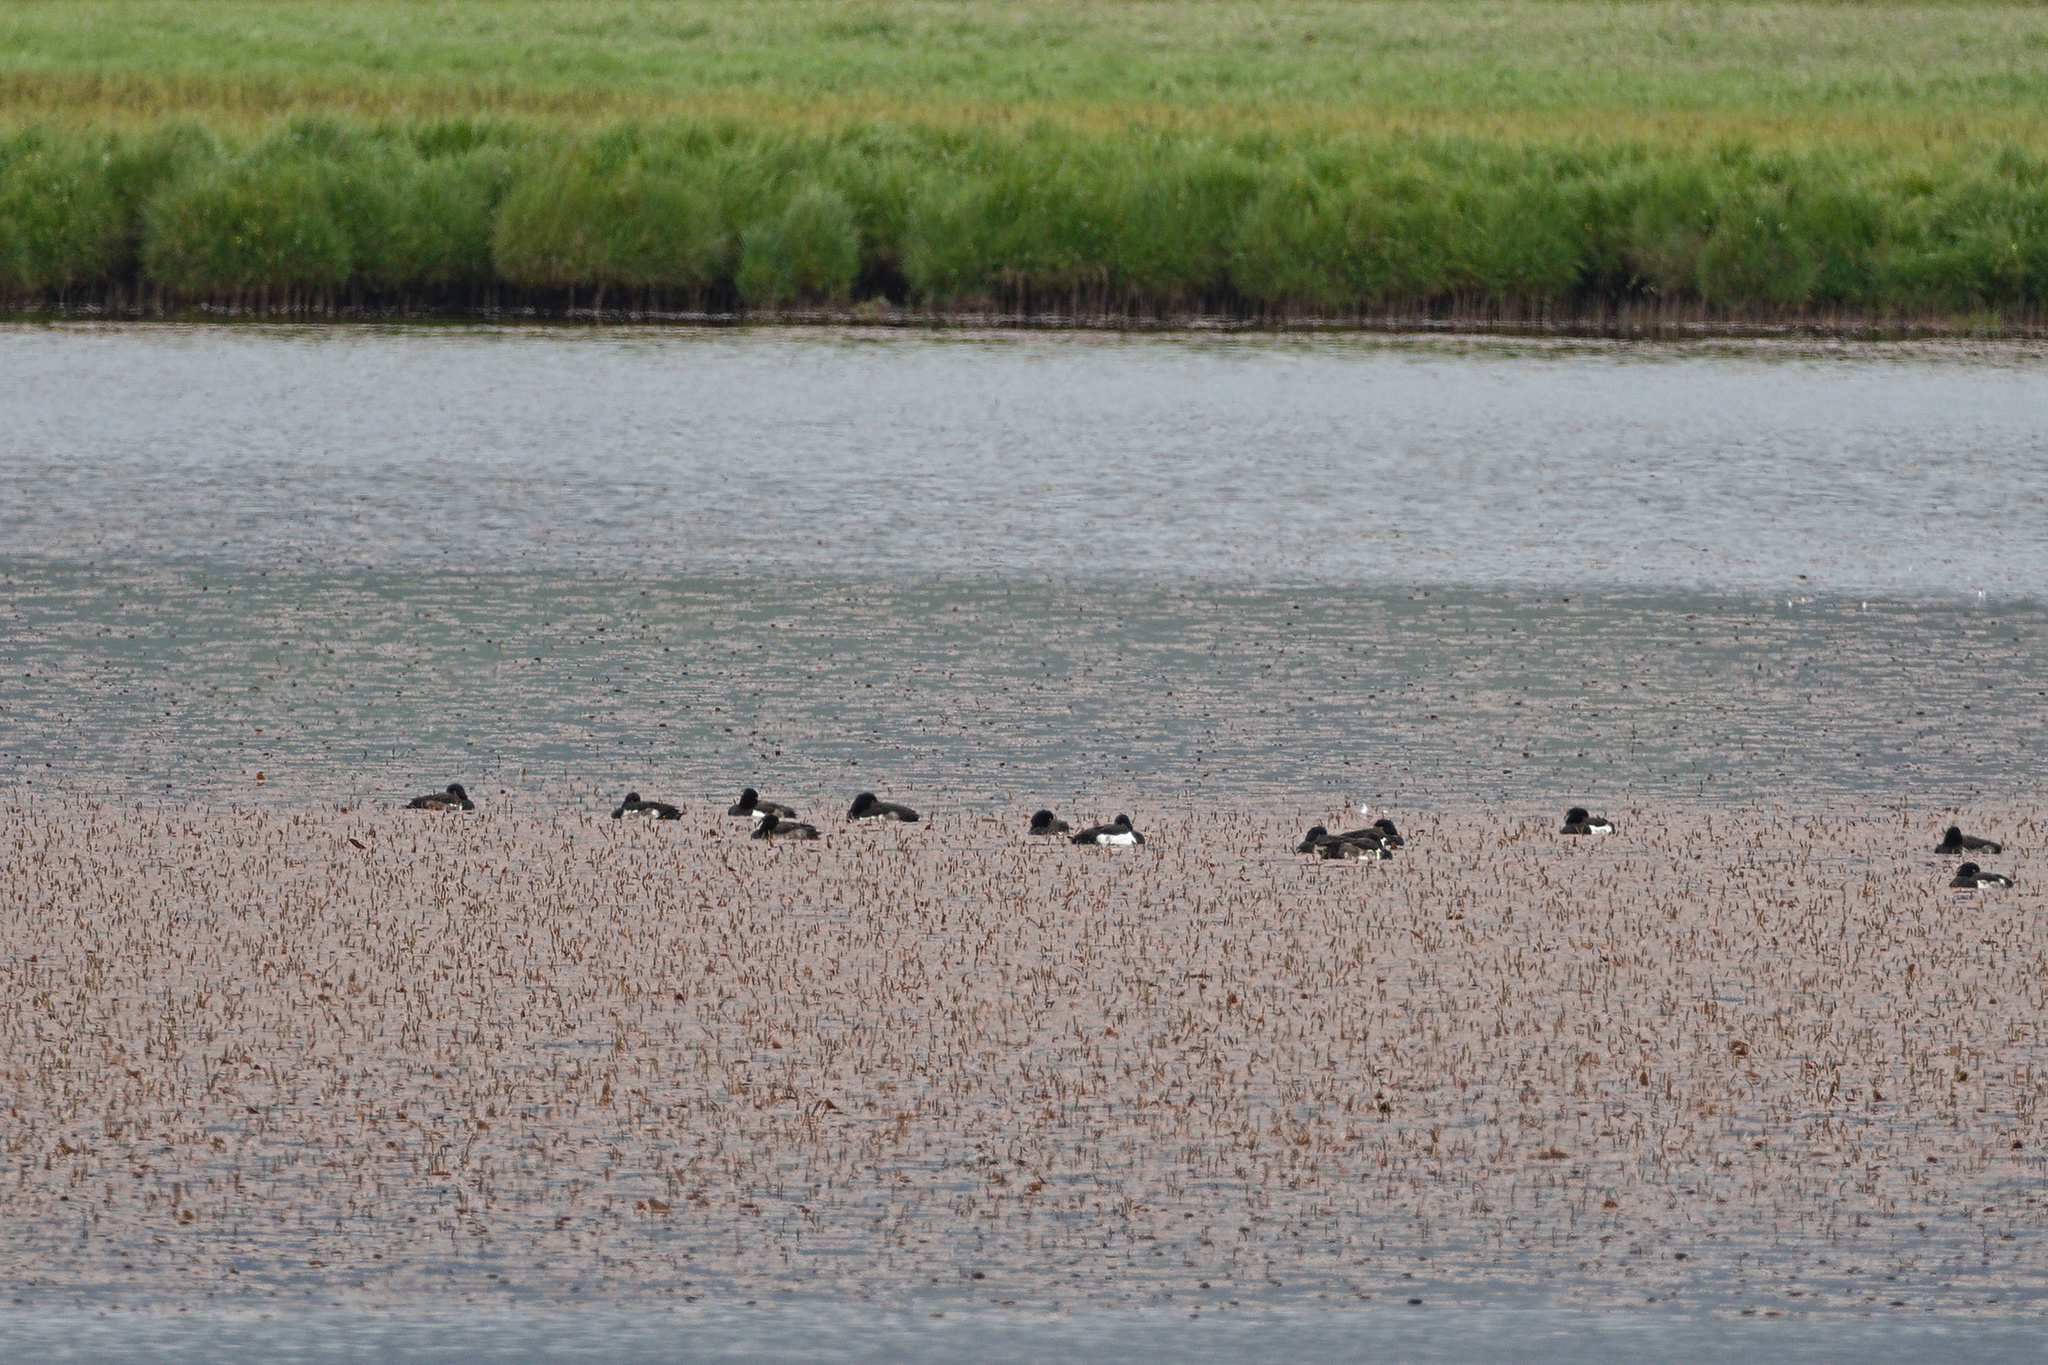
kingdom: Animalia
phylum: Chordata
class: Aves
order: Anseriformes
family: Anatidae
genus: Aythya
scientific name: Aythya fuligula
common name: Tufted duck
